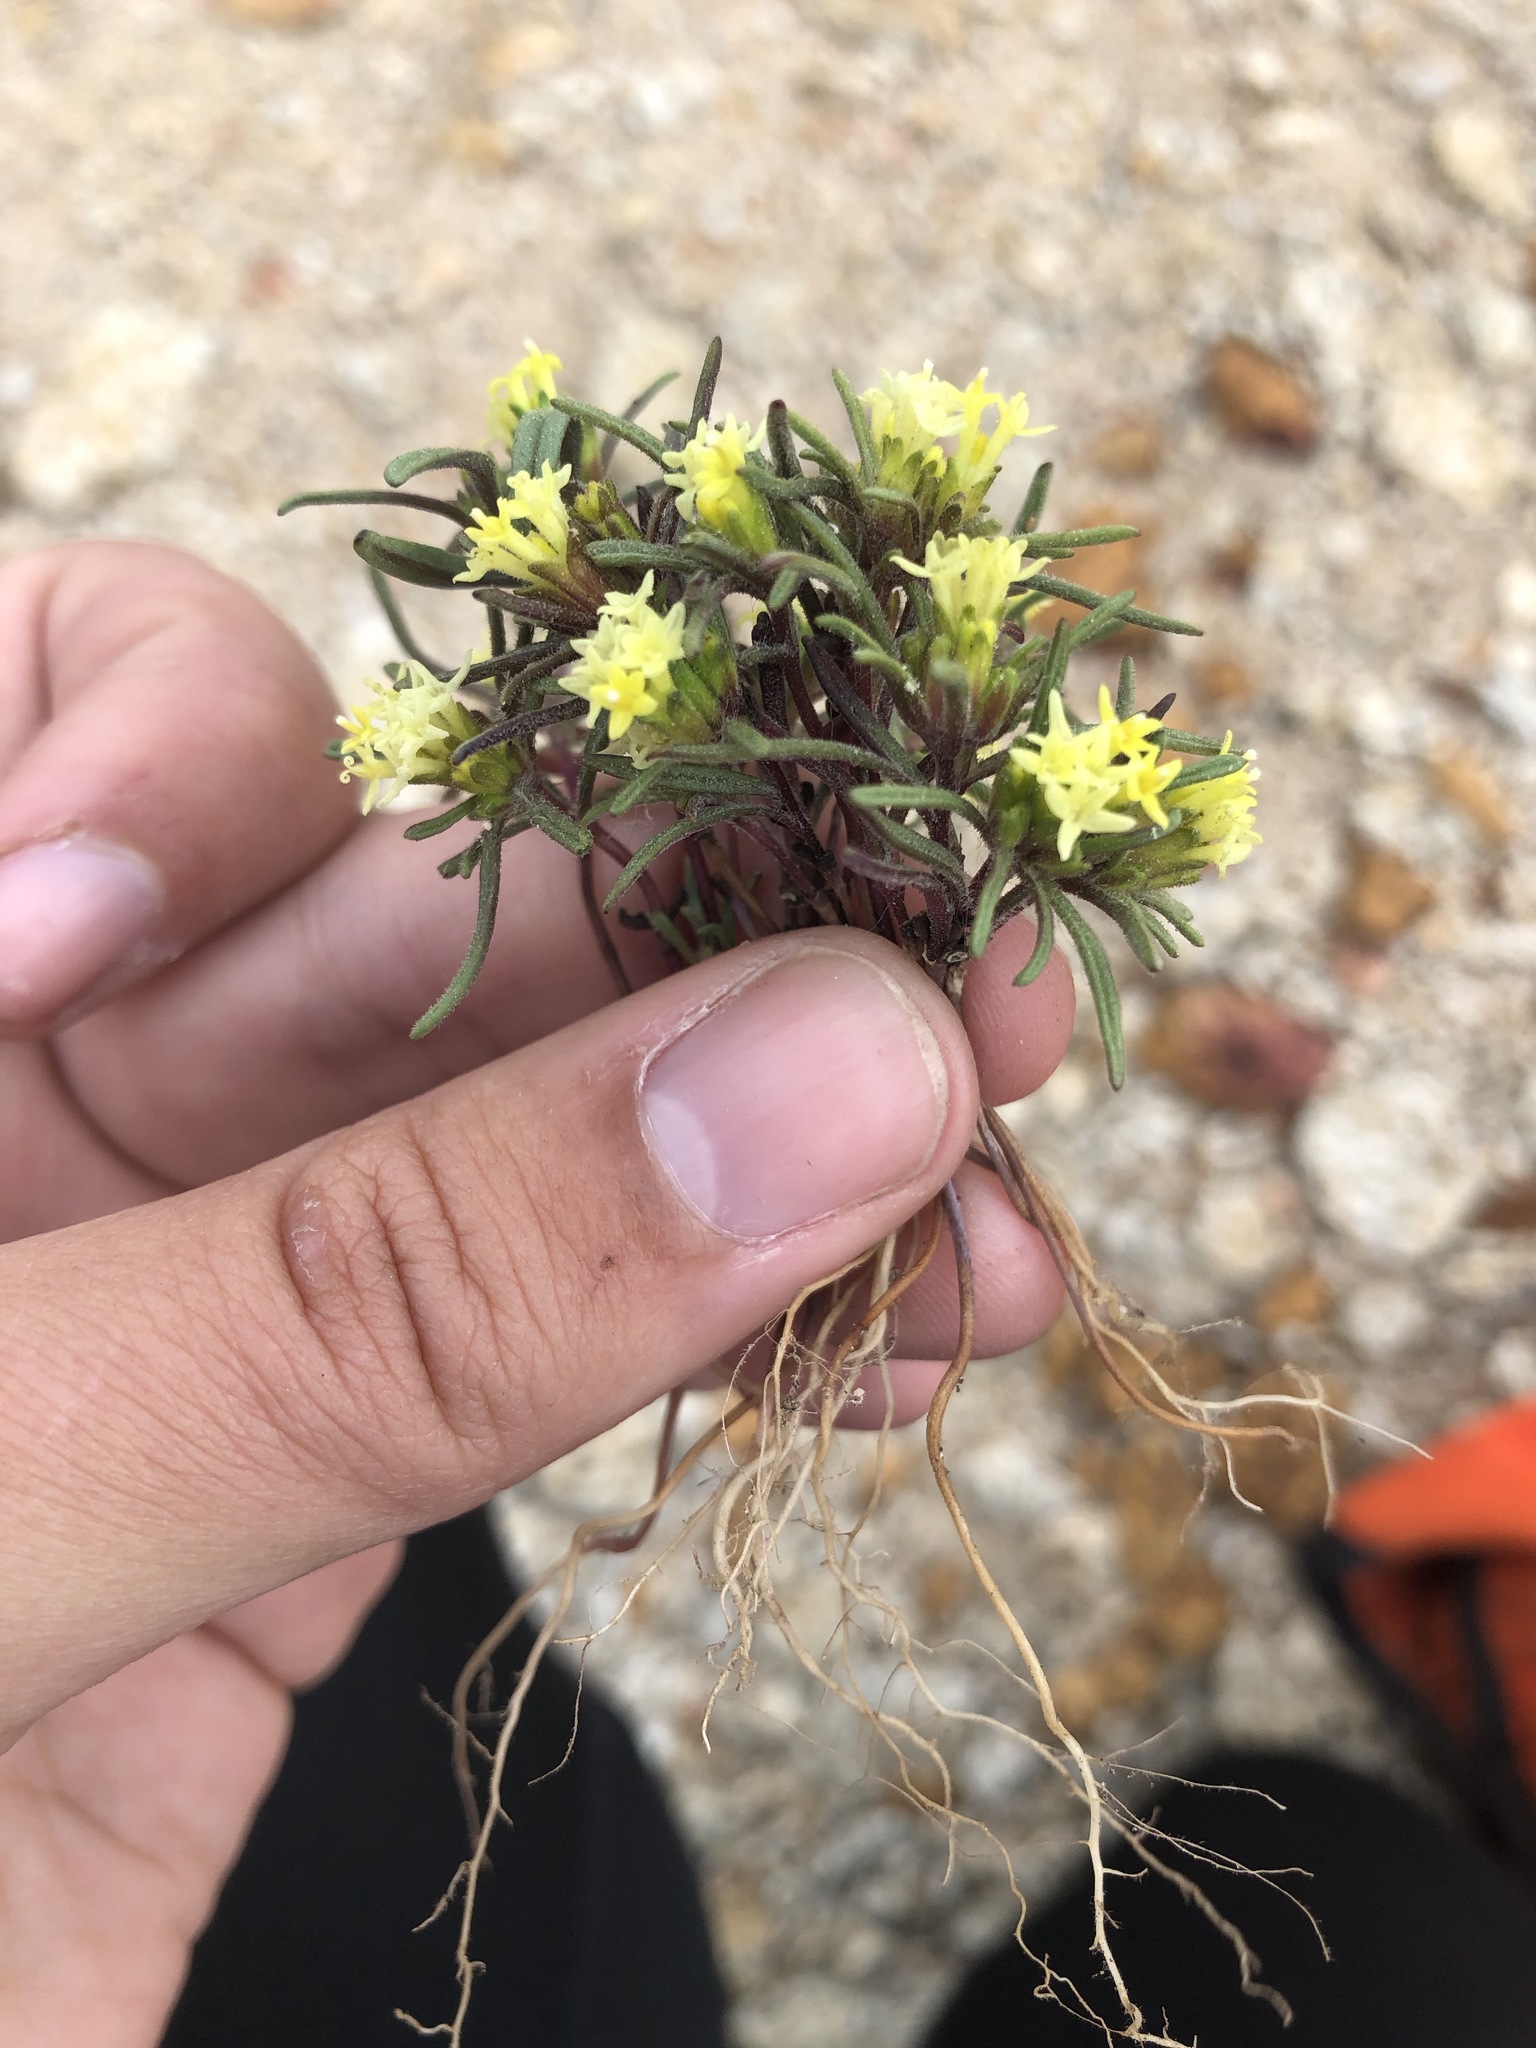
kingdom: Plantae
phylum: Tracheophyta
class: Magnoliopsida
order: Asterales
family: Asteraceae
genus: Orochaenactis
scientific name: Orochaenactis thysanocarpha
